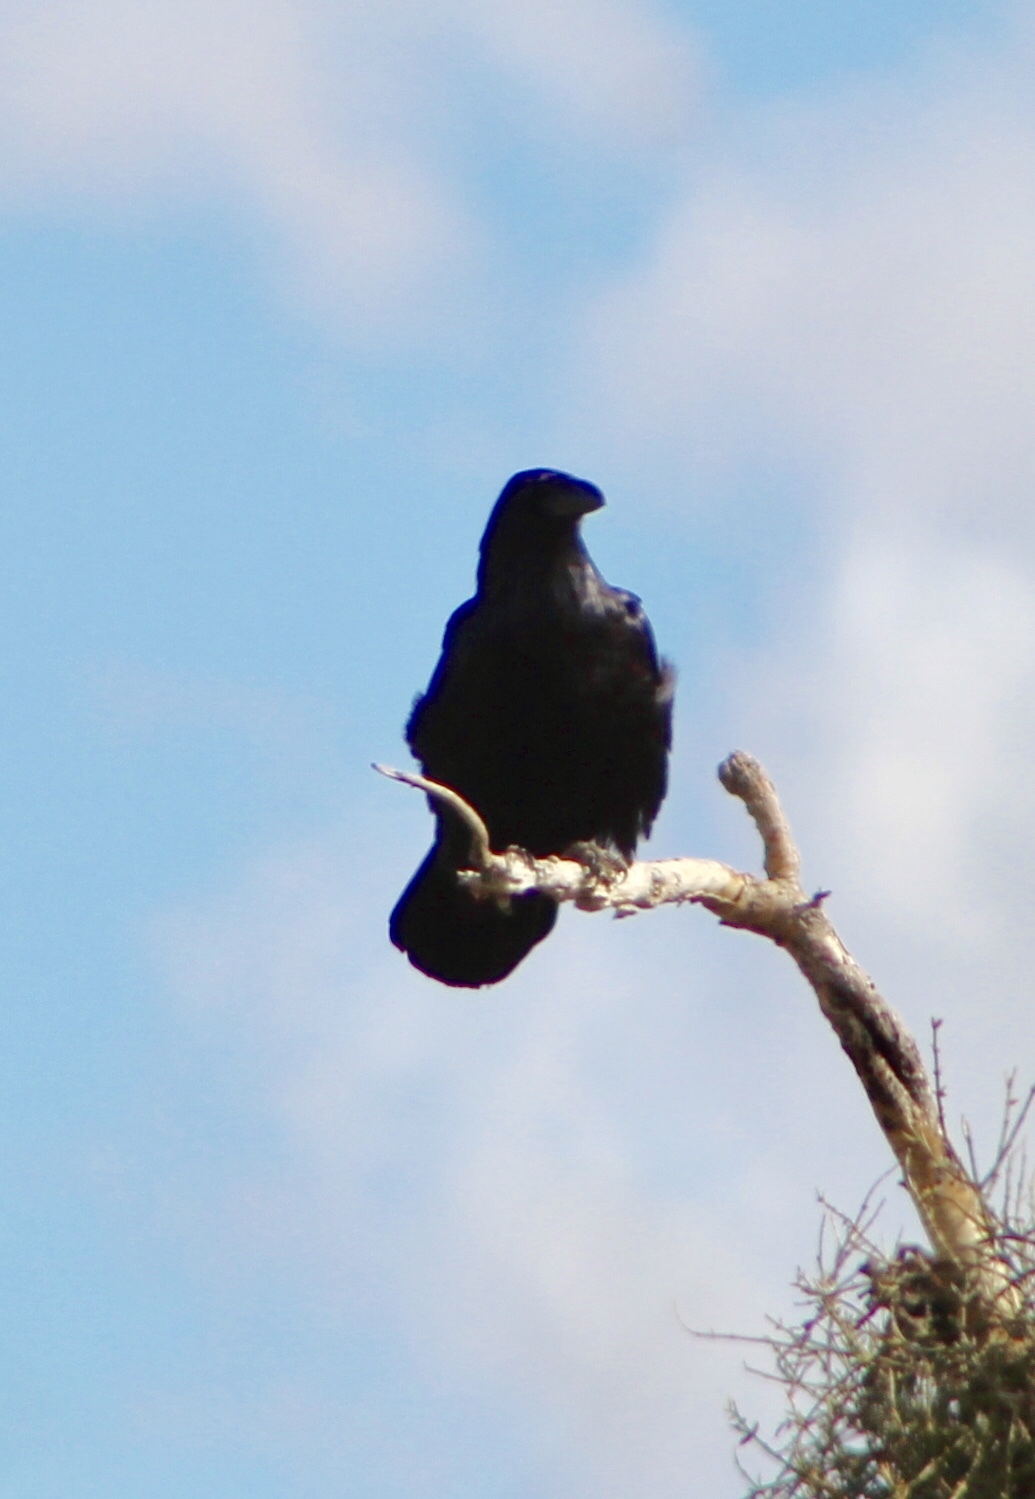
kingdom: Animalia
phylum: Chordata
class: Aves
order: Passeriformes
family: Corvidae
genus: Corvus
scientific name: Corvus corax
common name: Common raven
